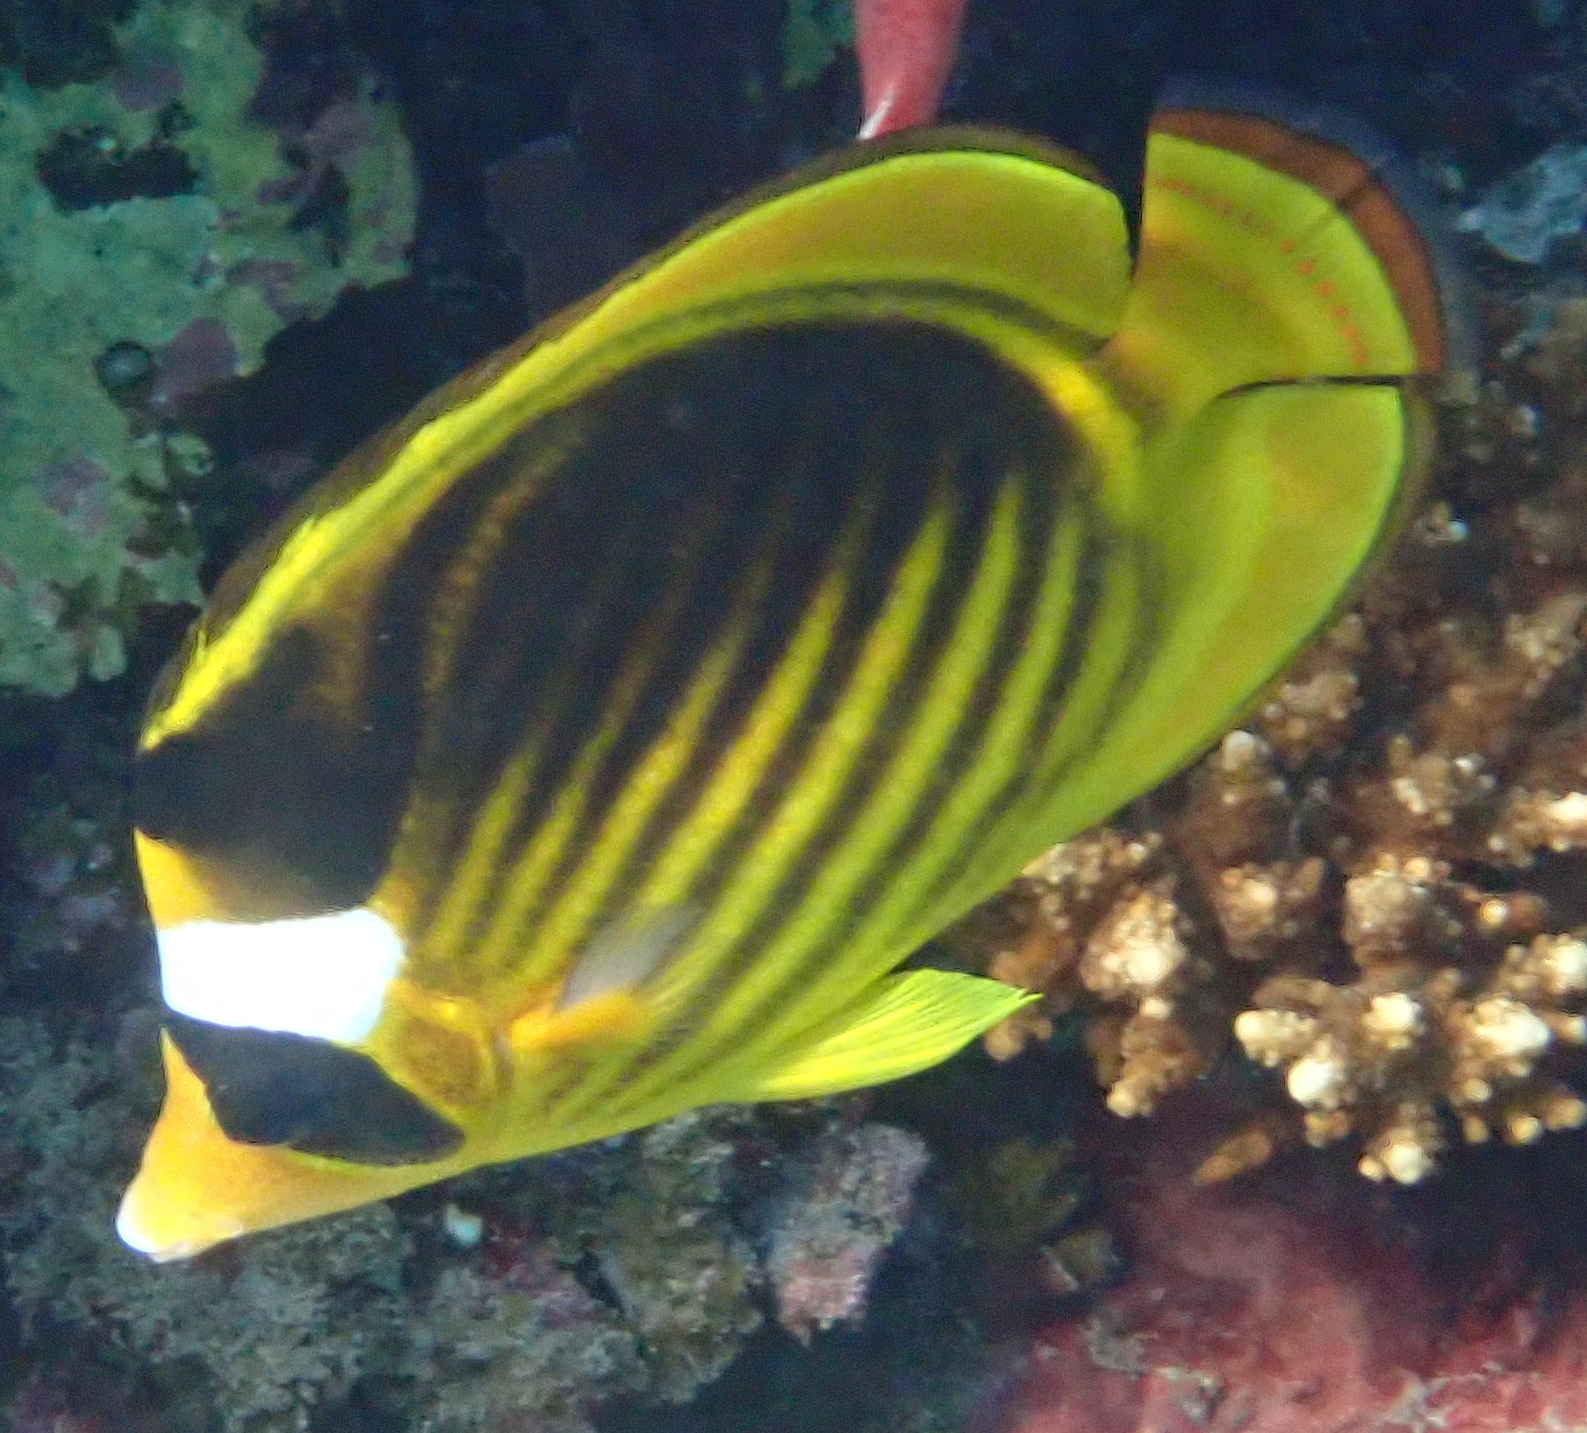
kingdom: Animalia
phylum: Chordata
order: Perciformes
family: Chaetodontidae
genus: Chaetodon
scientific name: Chaetodon fasciatus
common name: Diagonal butterflyfish
